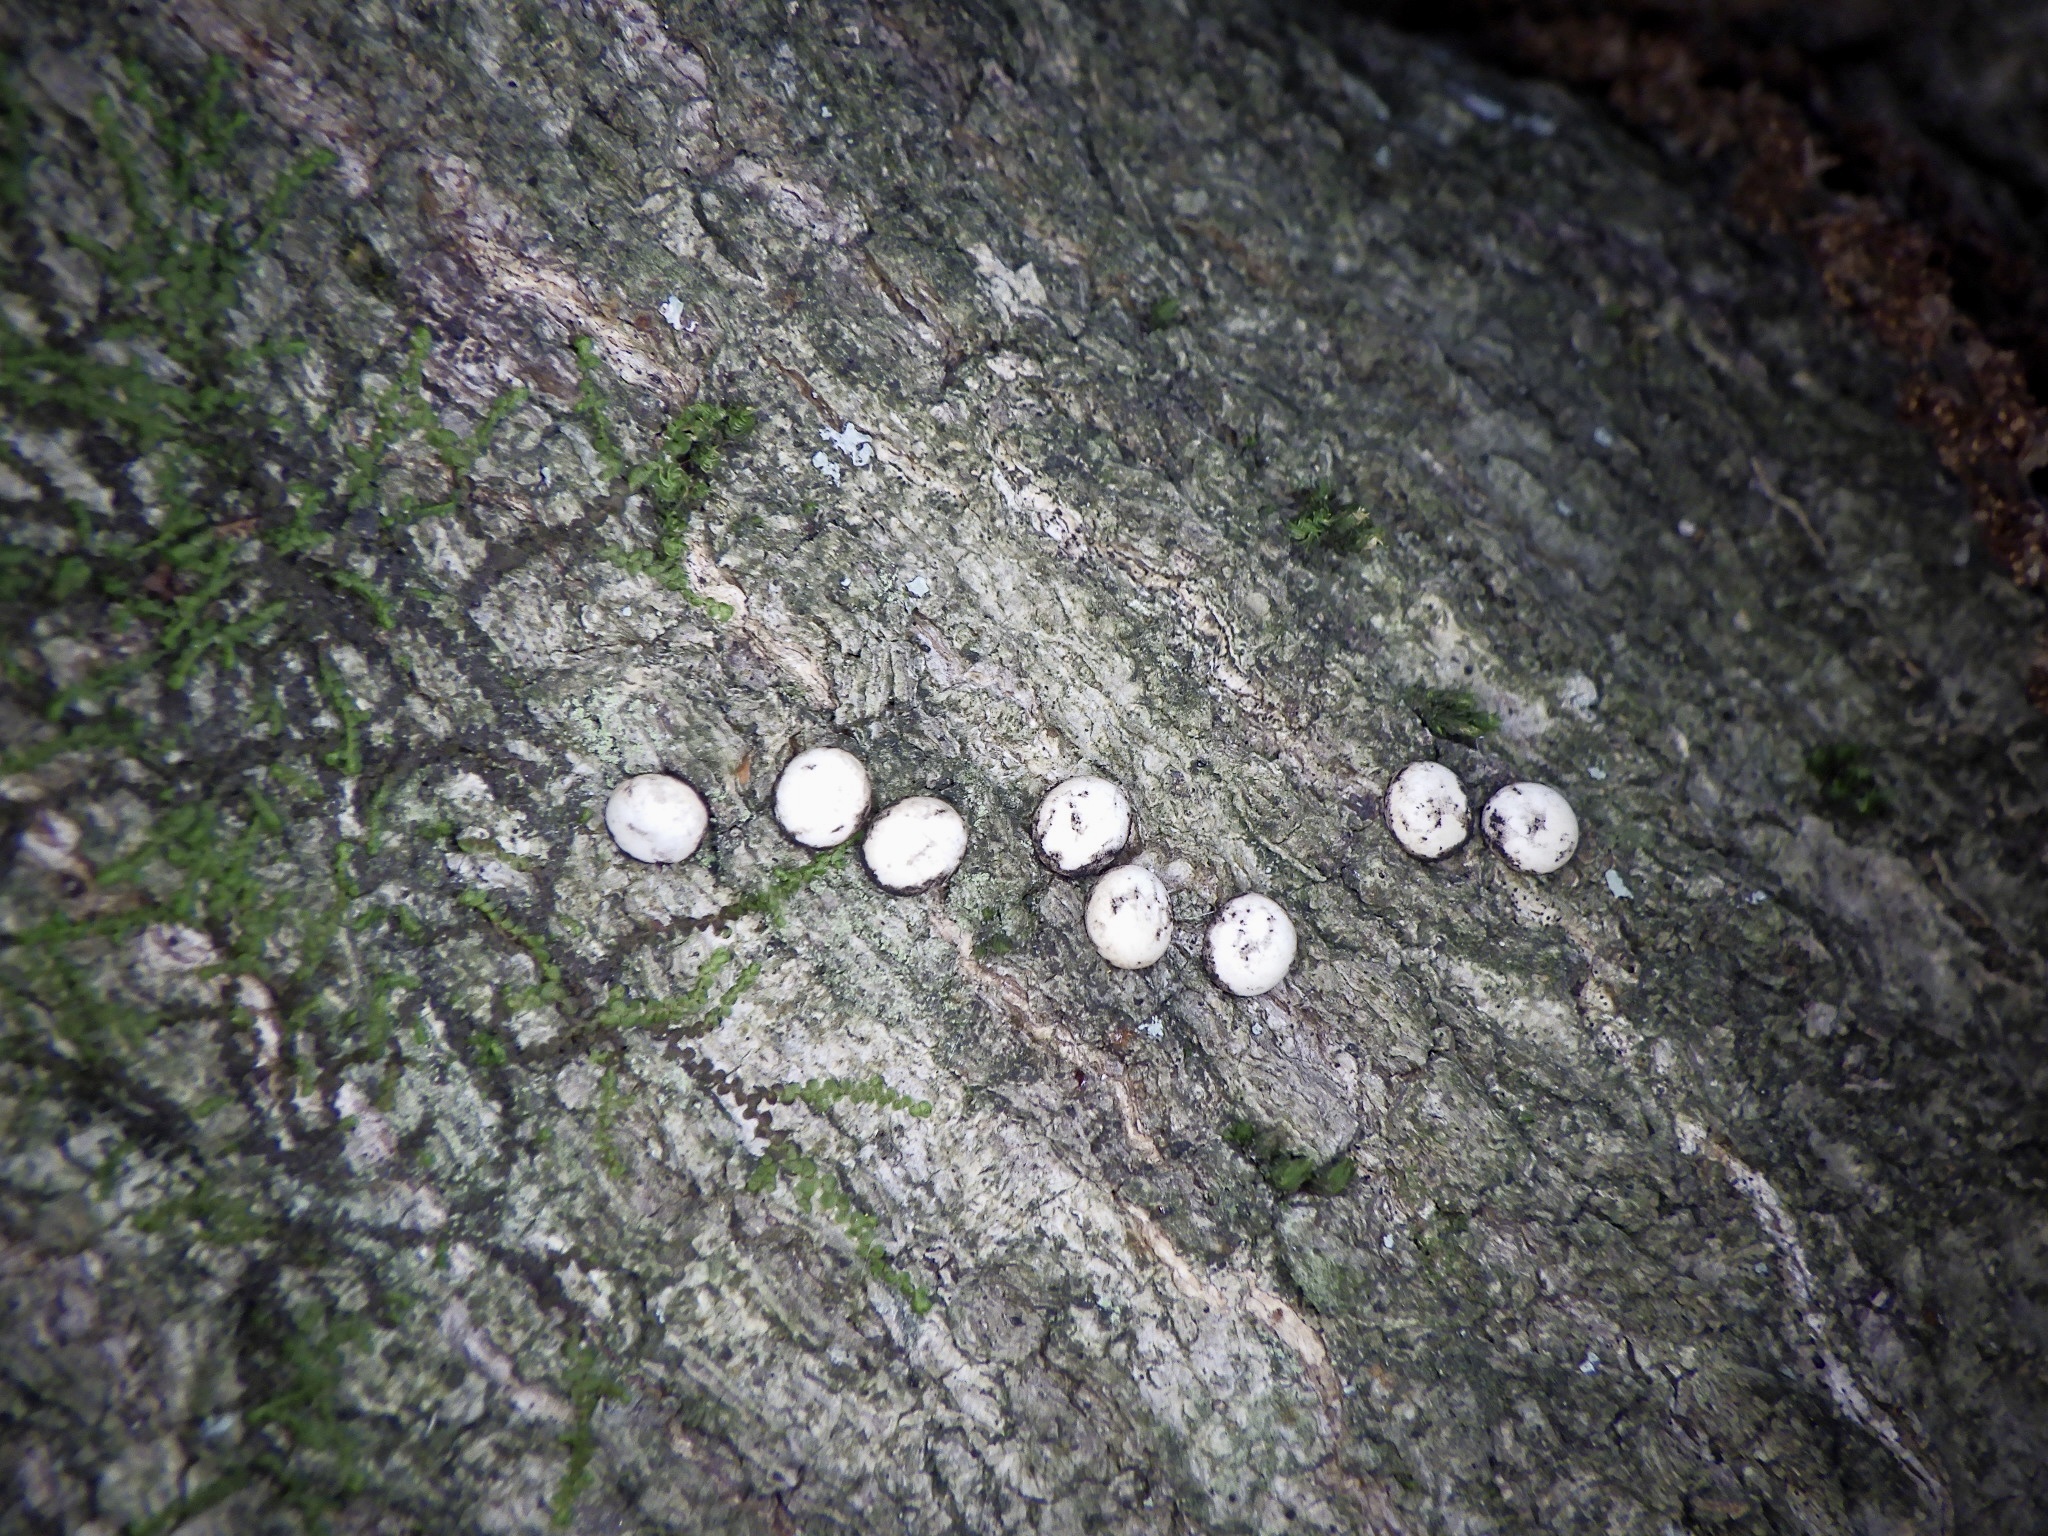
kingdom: Animalia
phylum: Arthropoda
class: Insecta
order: Lepidoptera
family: Saturniidae
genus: Antheraea
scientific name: Antheraea yamamai
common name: Japanese oak silk moth
